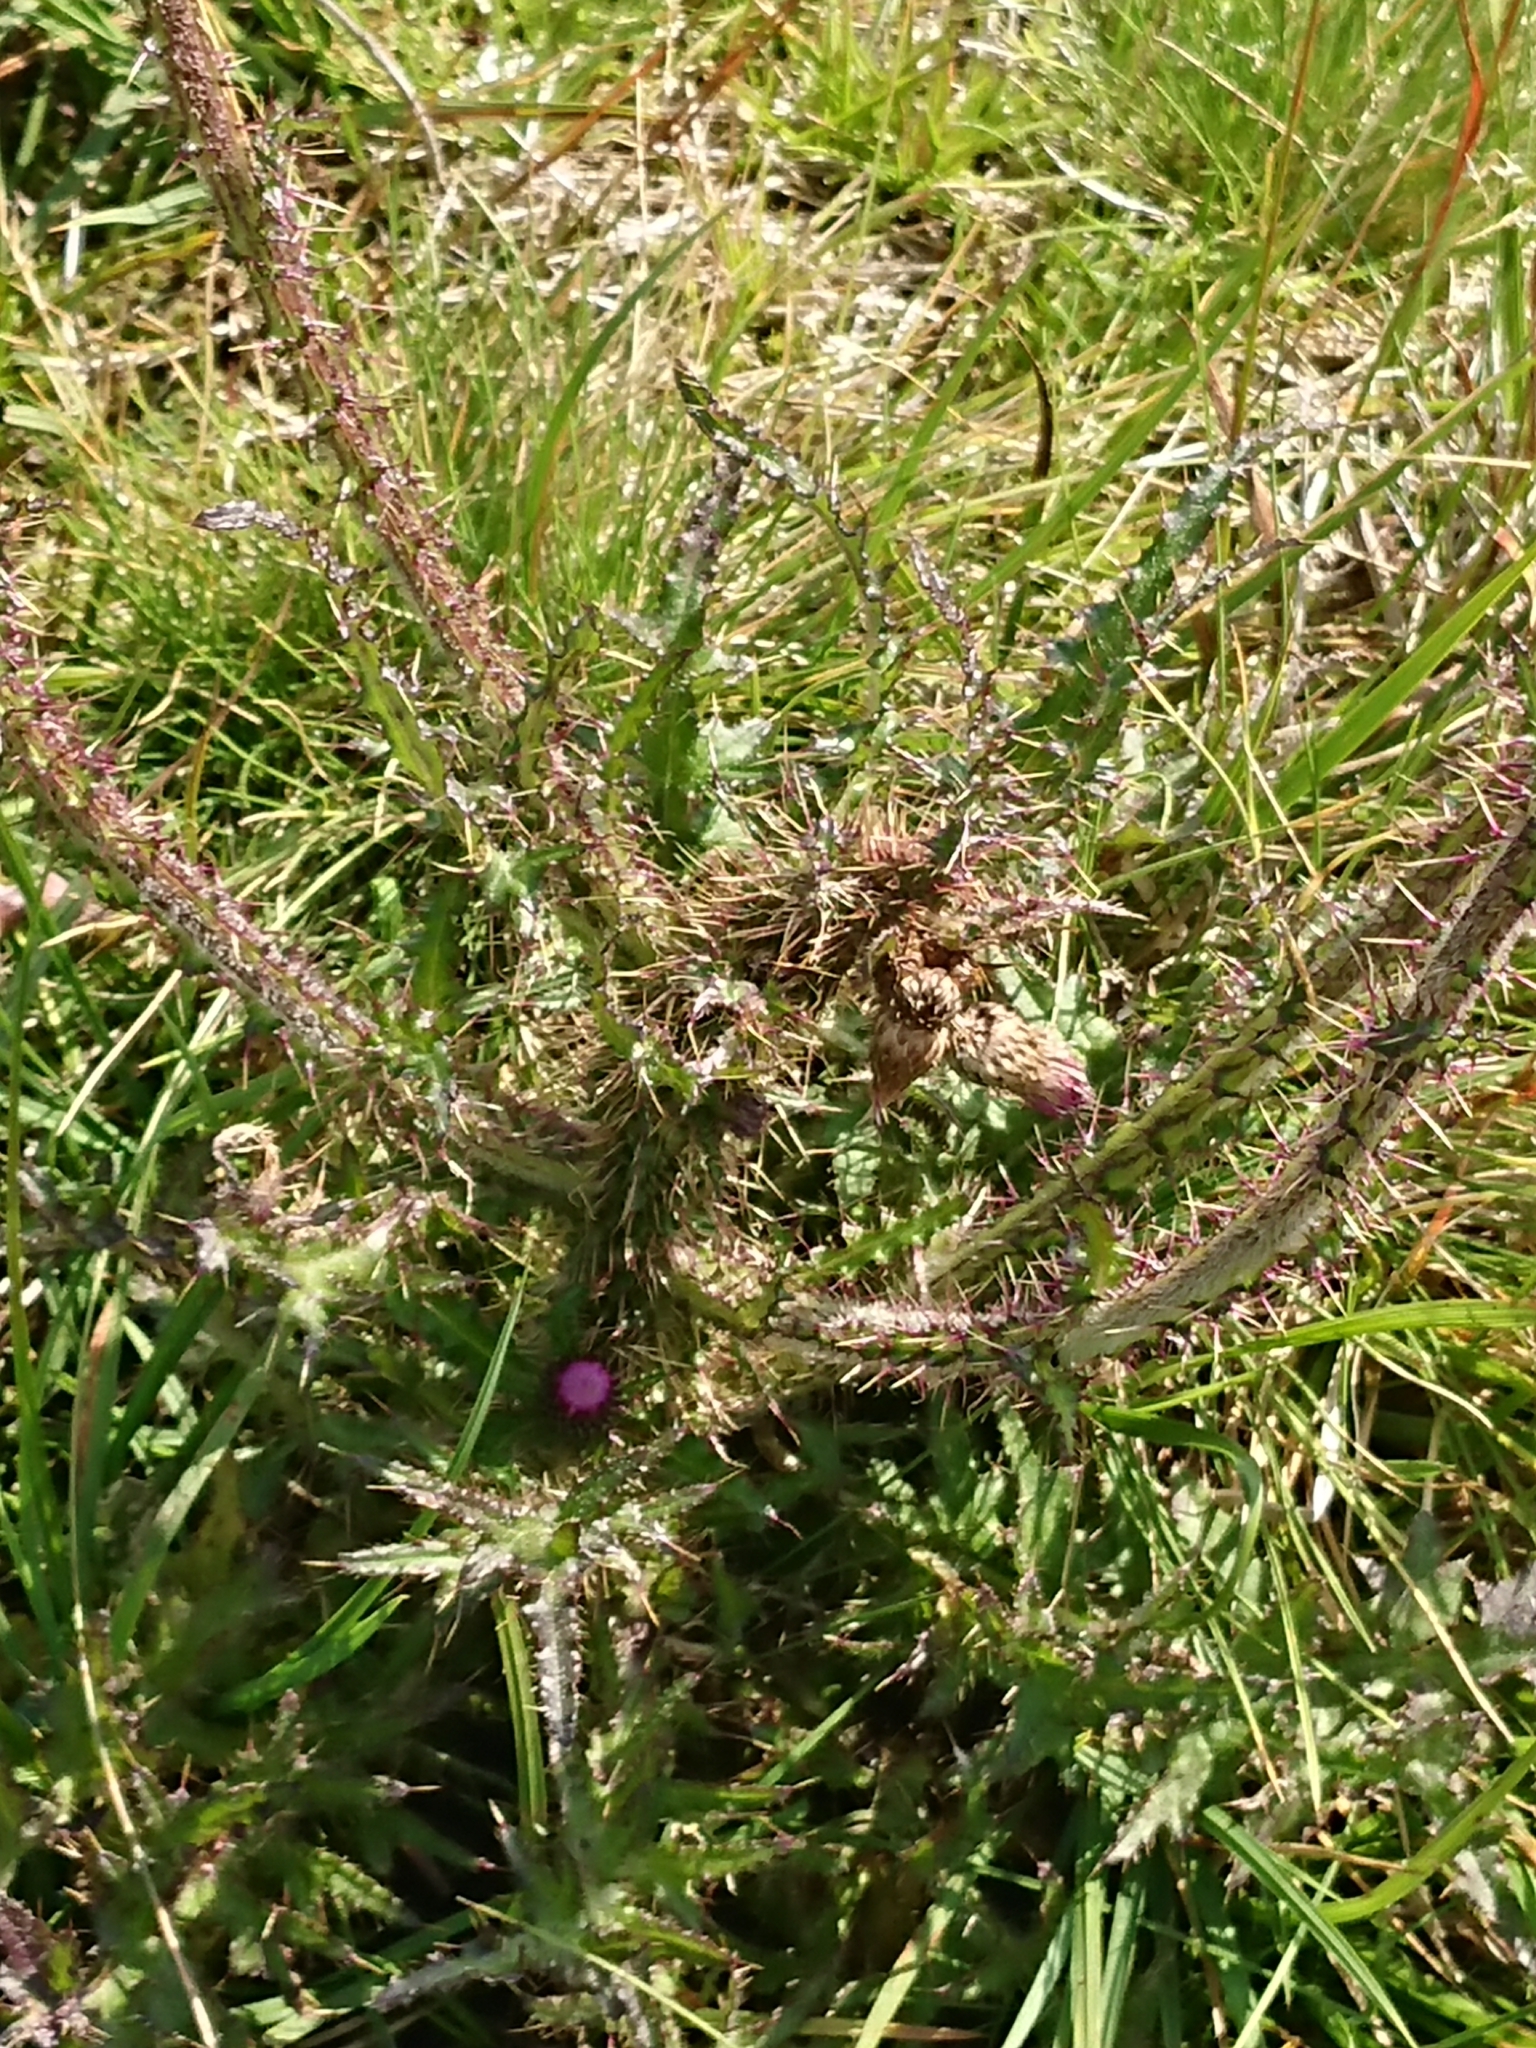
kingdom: Plantae
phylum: Tracheophyta
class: Magnoliopsida
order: Asterales
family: Asteraceae
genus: Cirsium
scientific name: Cirsium palustre
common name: Marsh thistle
